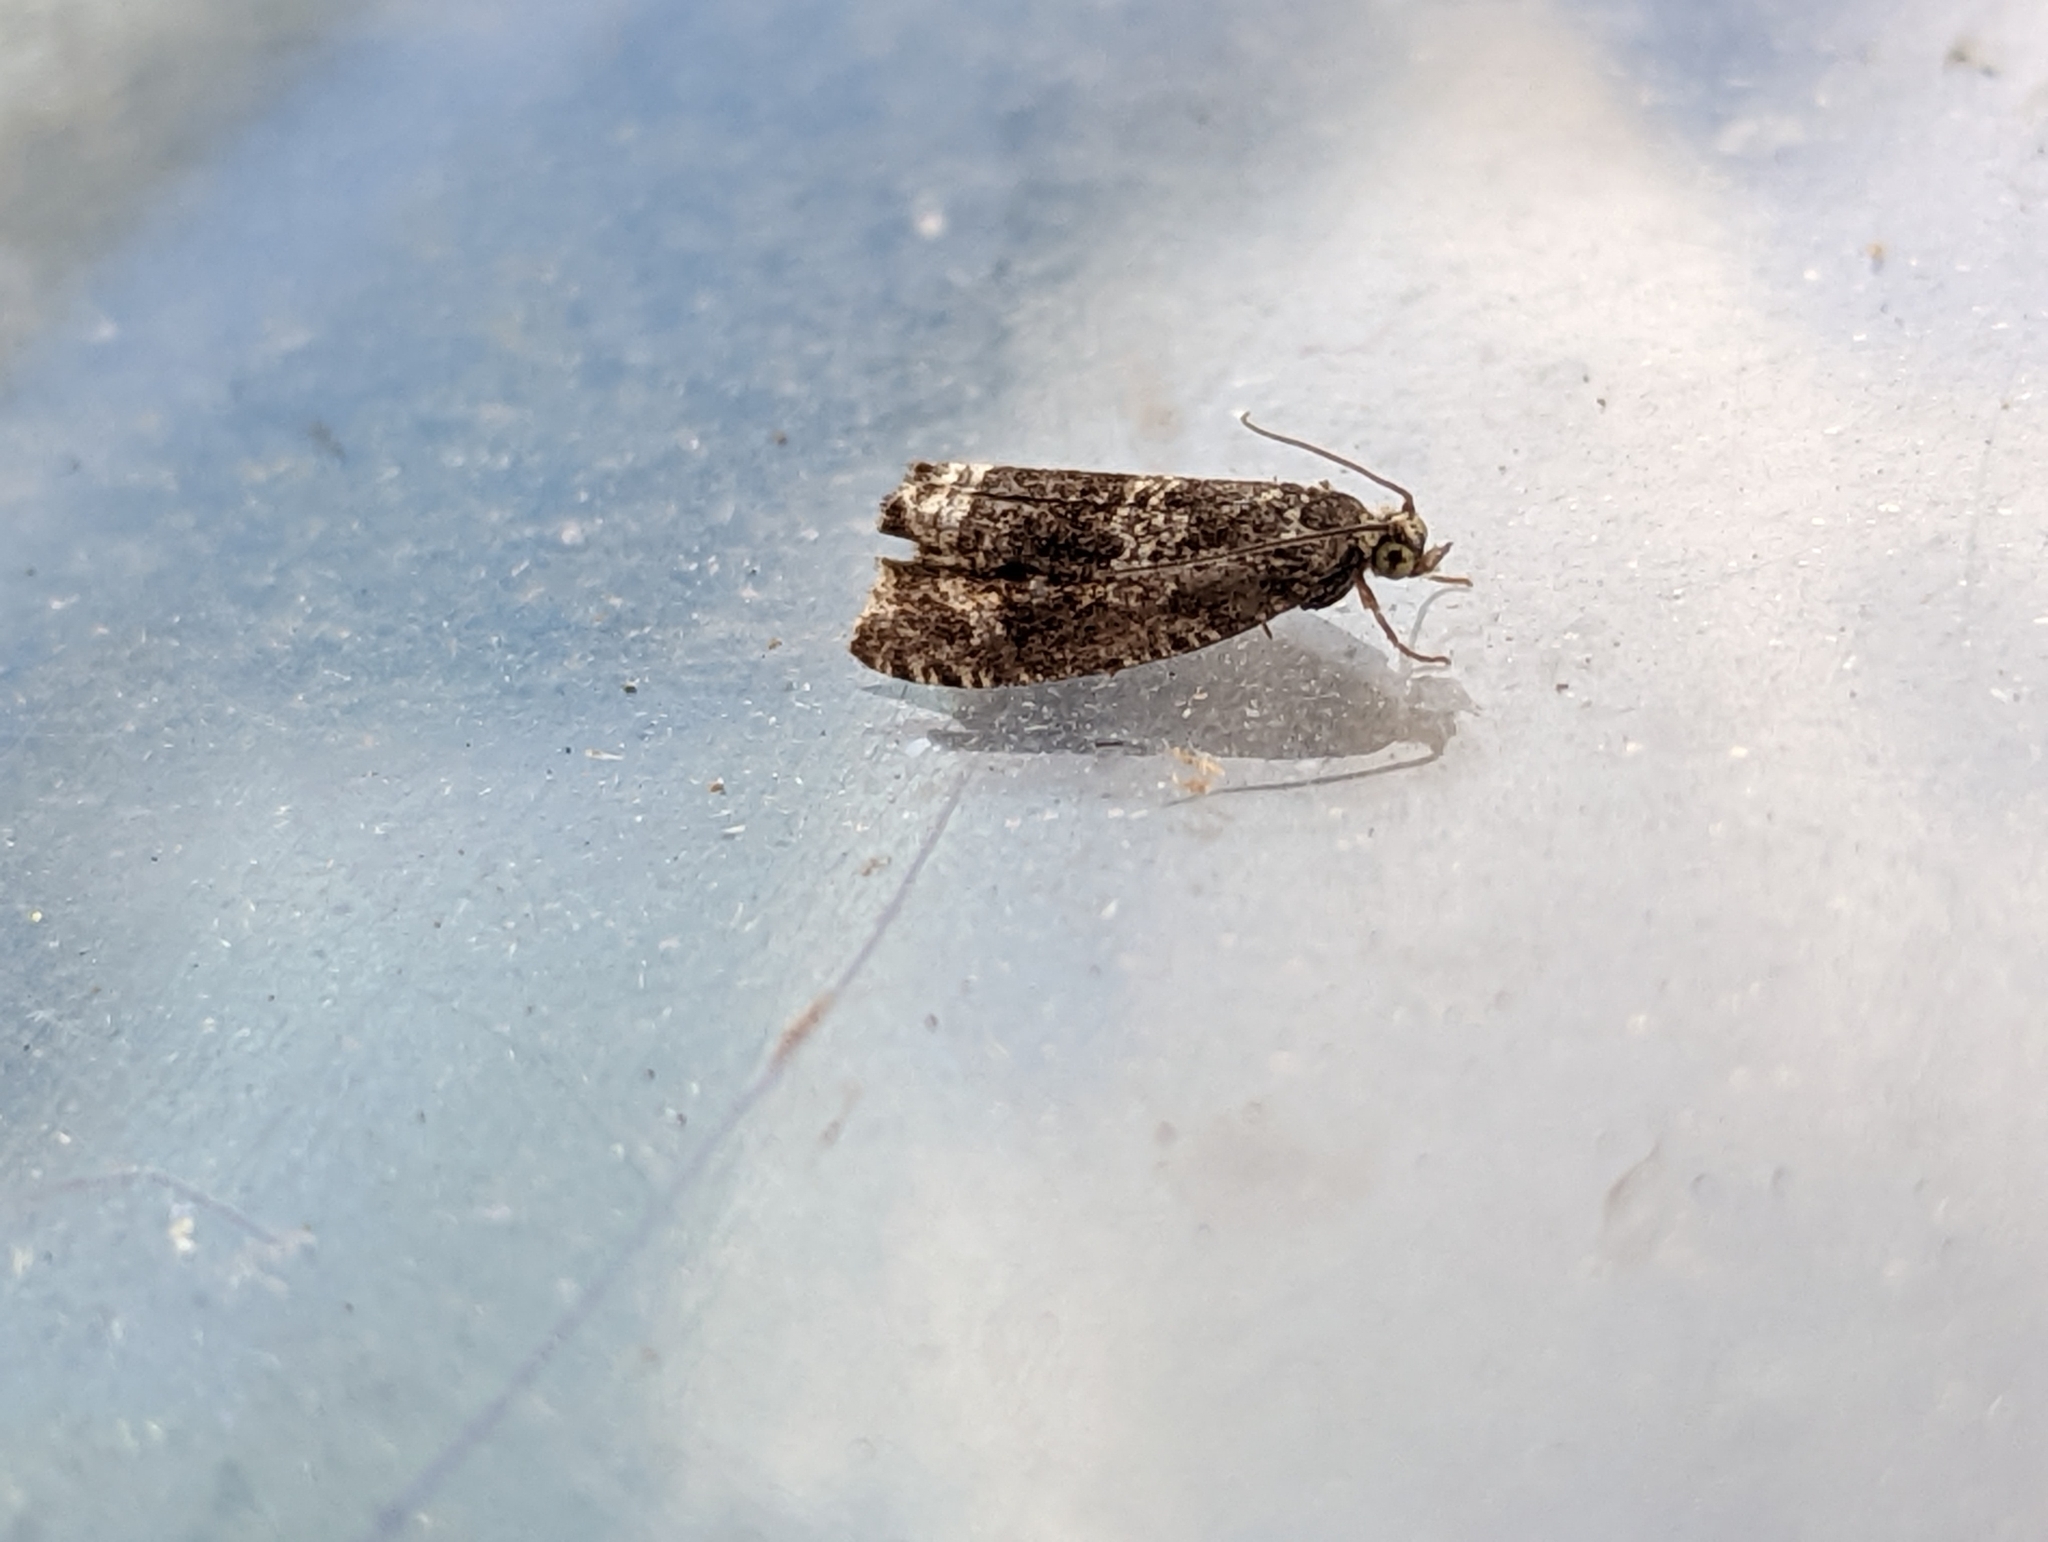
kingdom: Animalia
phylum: Arthropoda
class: Insecta
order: Lepidoptera
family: Tortricidae
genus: Syricoris
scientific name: Syricoris lacunana
